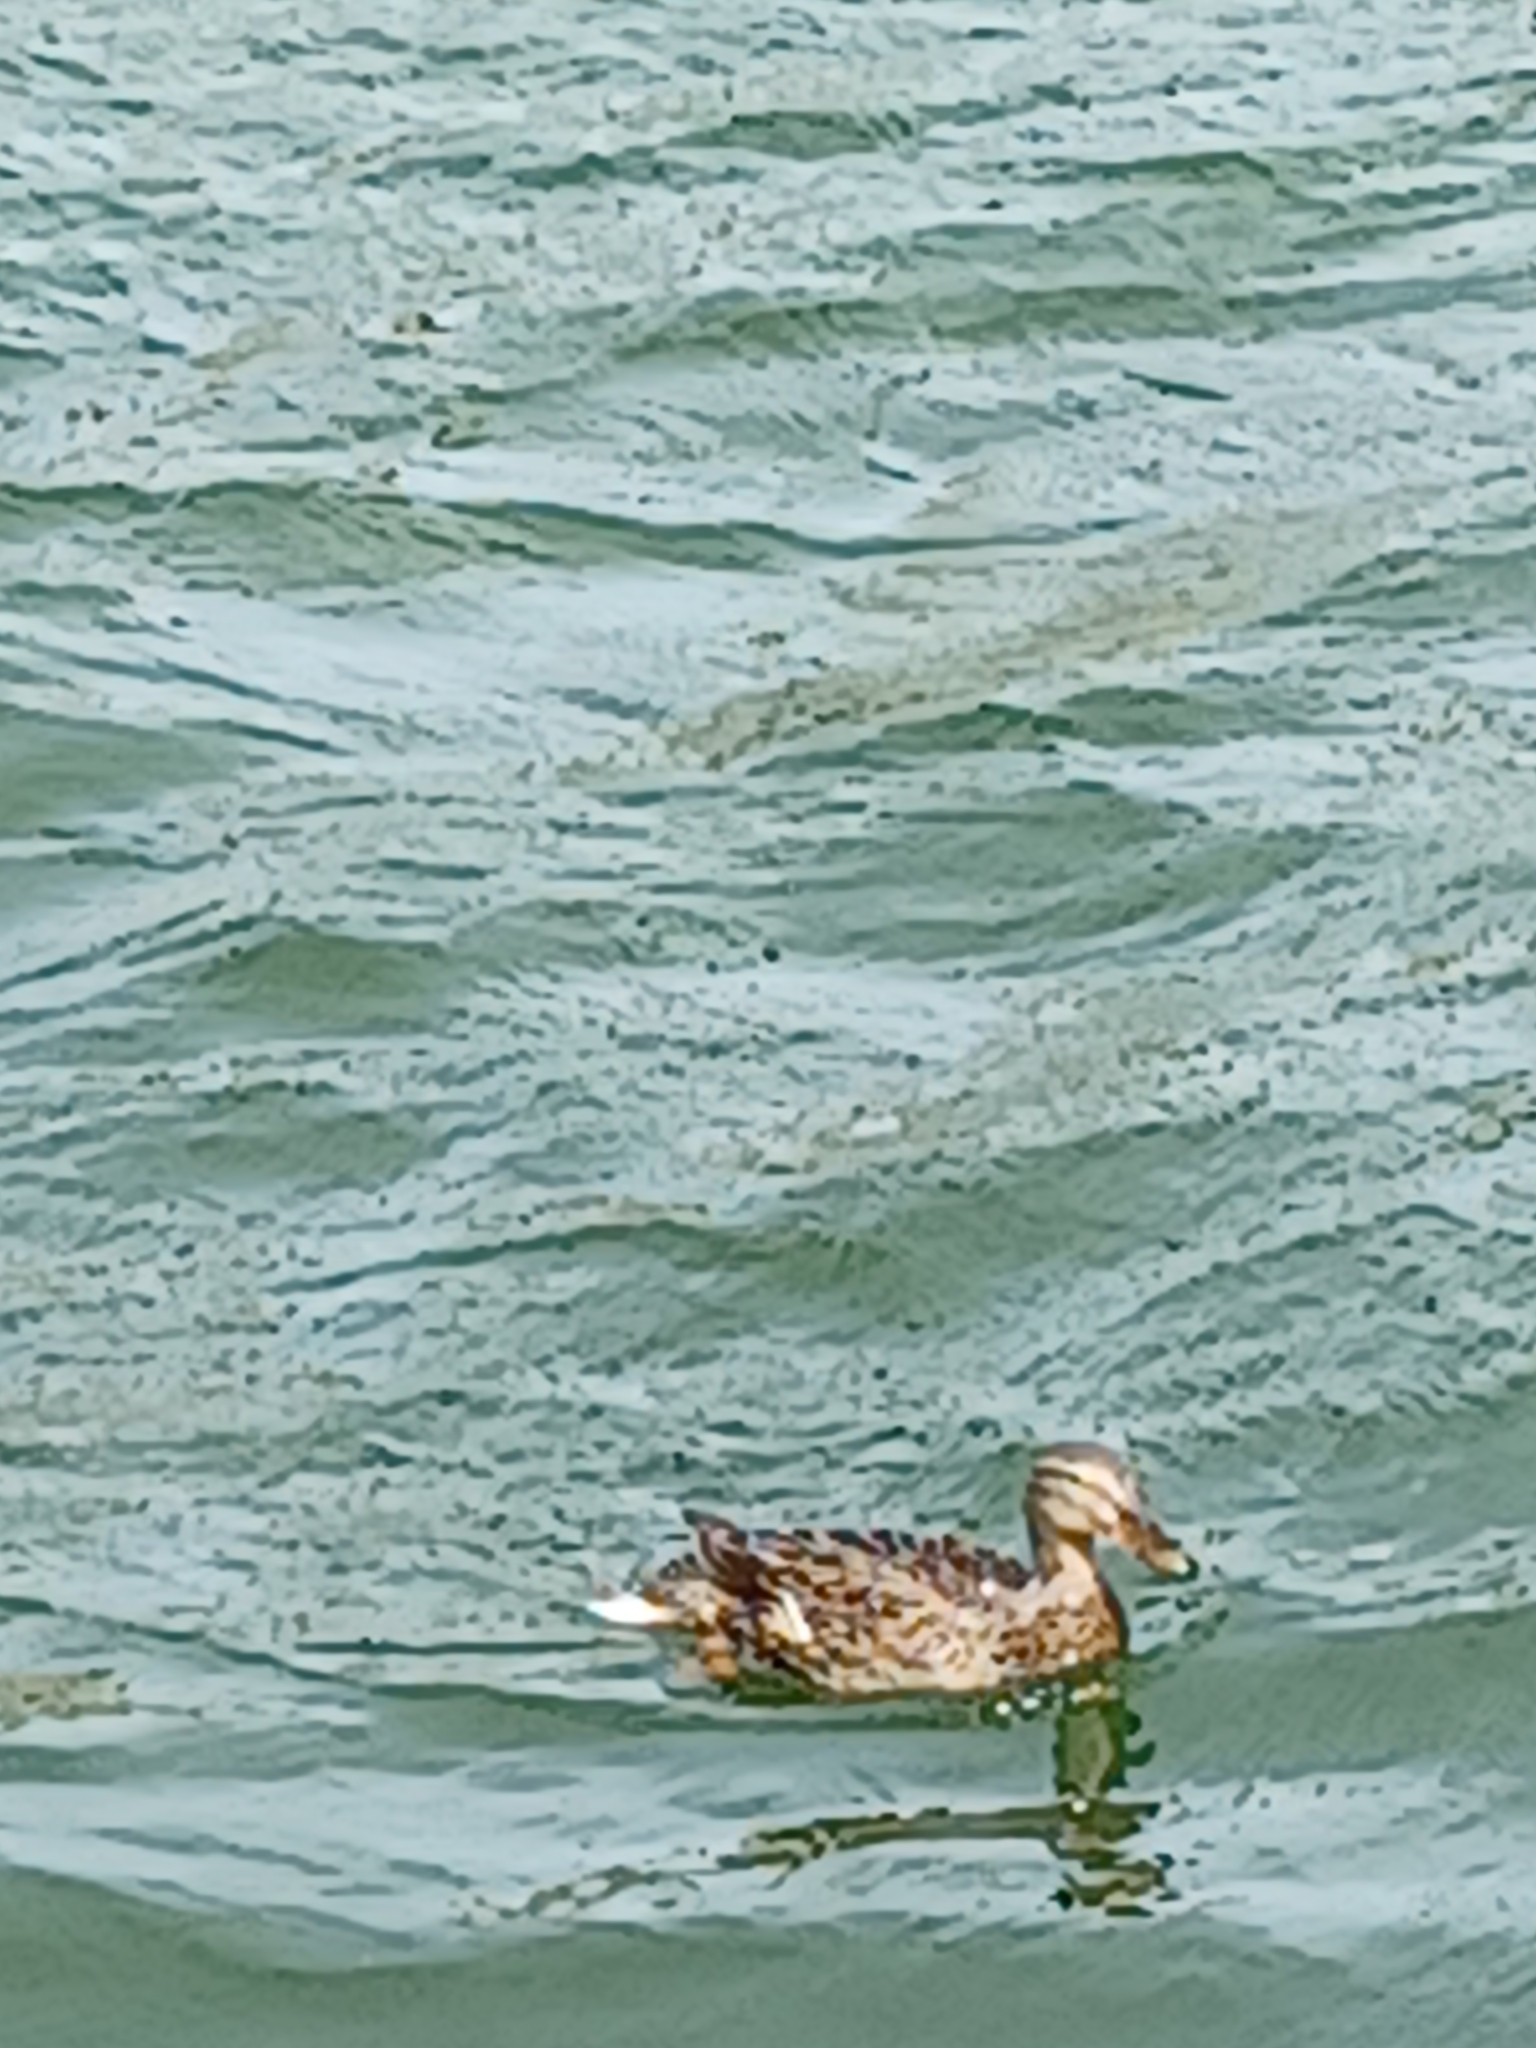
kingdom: Animalia
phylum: Chordata
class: Aves
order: Anseriformes
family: Anatidae
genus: Anas
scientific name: Anas platyrhynchos
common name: Mallard
